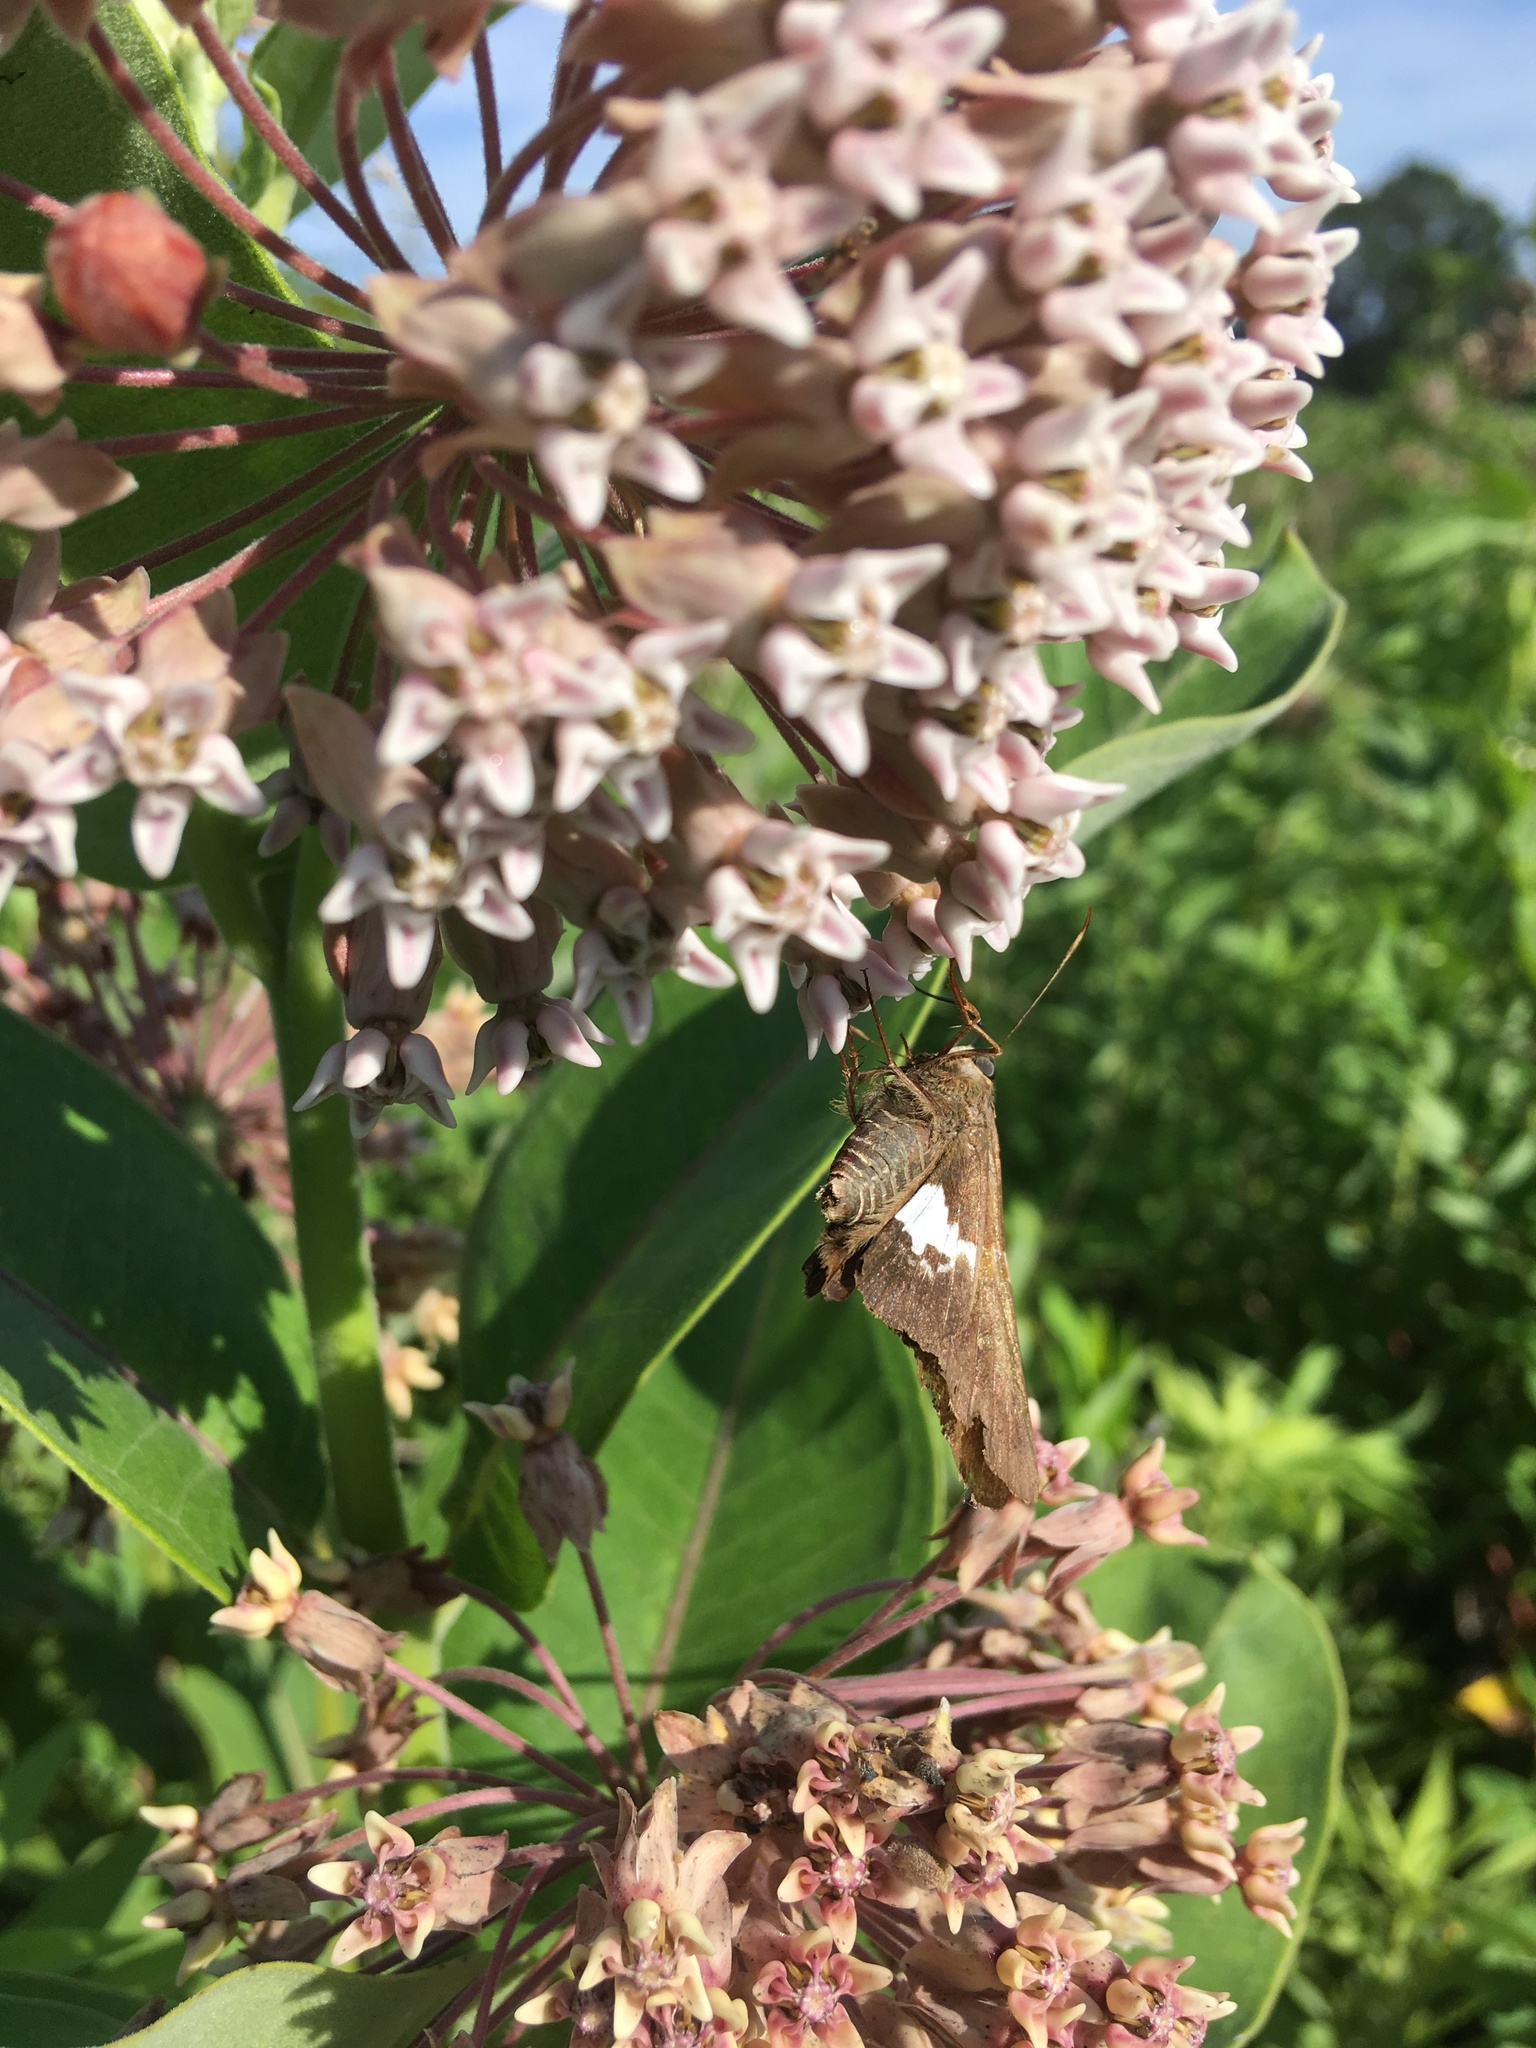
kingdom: Animalia
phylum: Arthropoda
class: Insecta
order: Lepidoptera
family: Hesperiidae
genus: Epargyreus
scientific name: Epargyreus clarus
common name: Silver-spotted skipper
